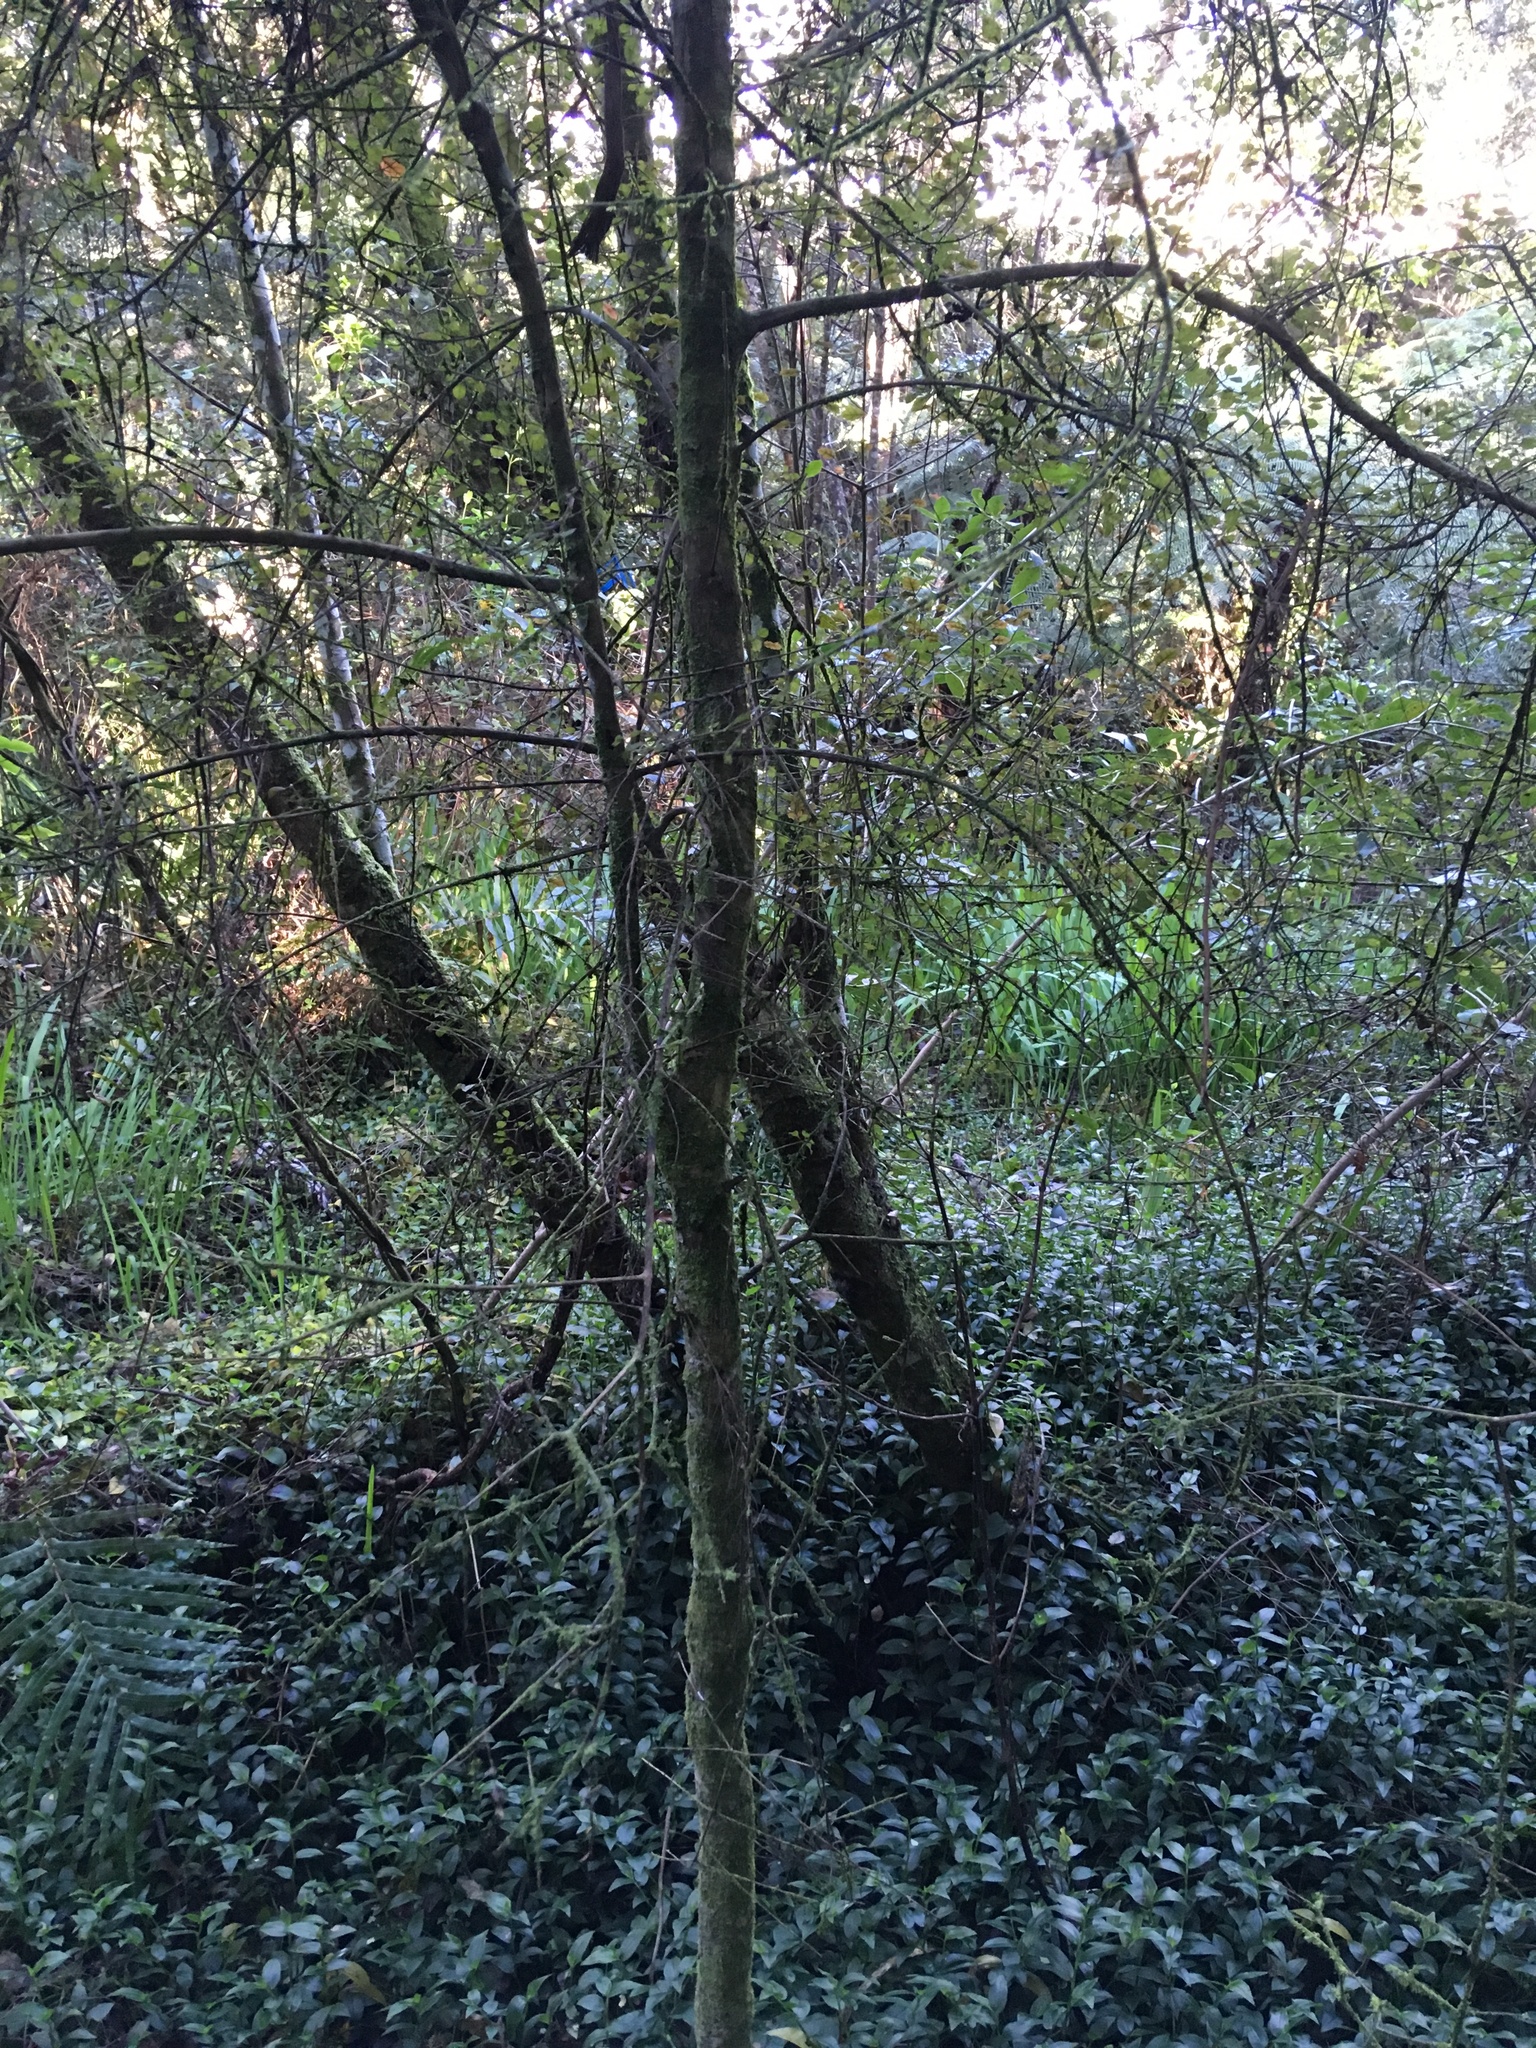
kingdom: Plantae
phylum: Tracheophyta
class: Liliopsida
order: Commelinales
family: Commelinaceae
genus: Tradescantia
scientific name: Tradescantia fluminensis
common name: Wandering-jew
